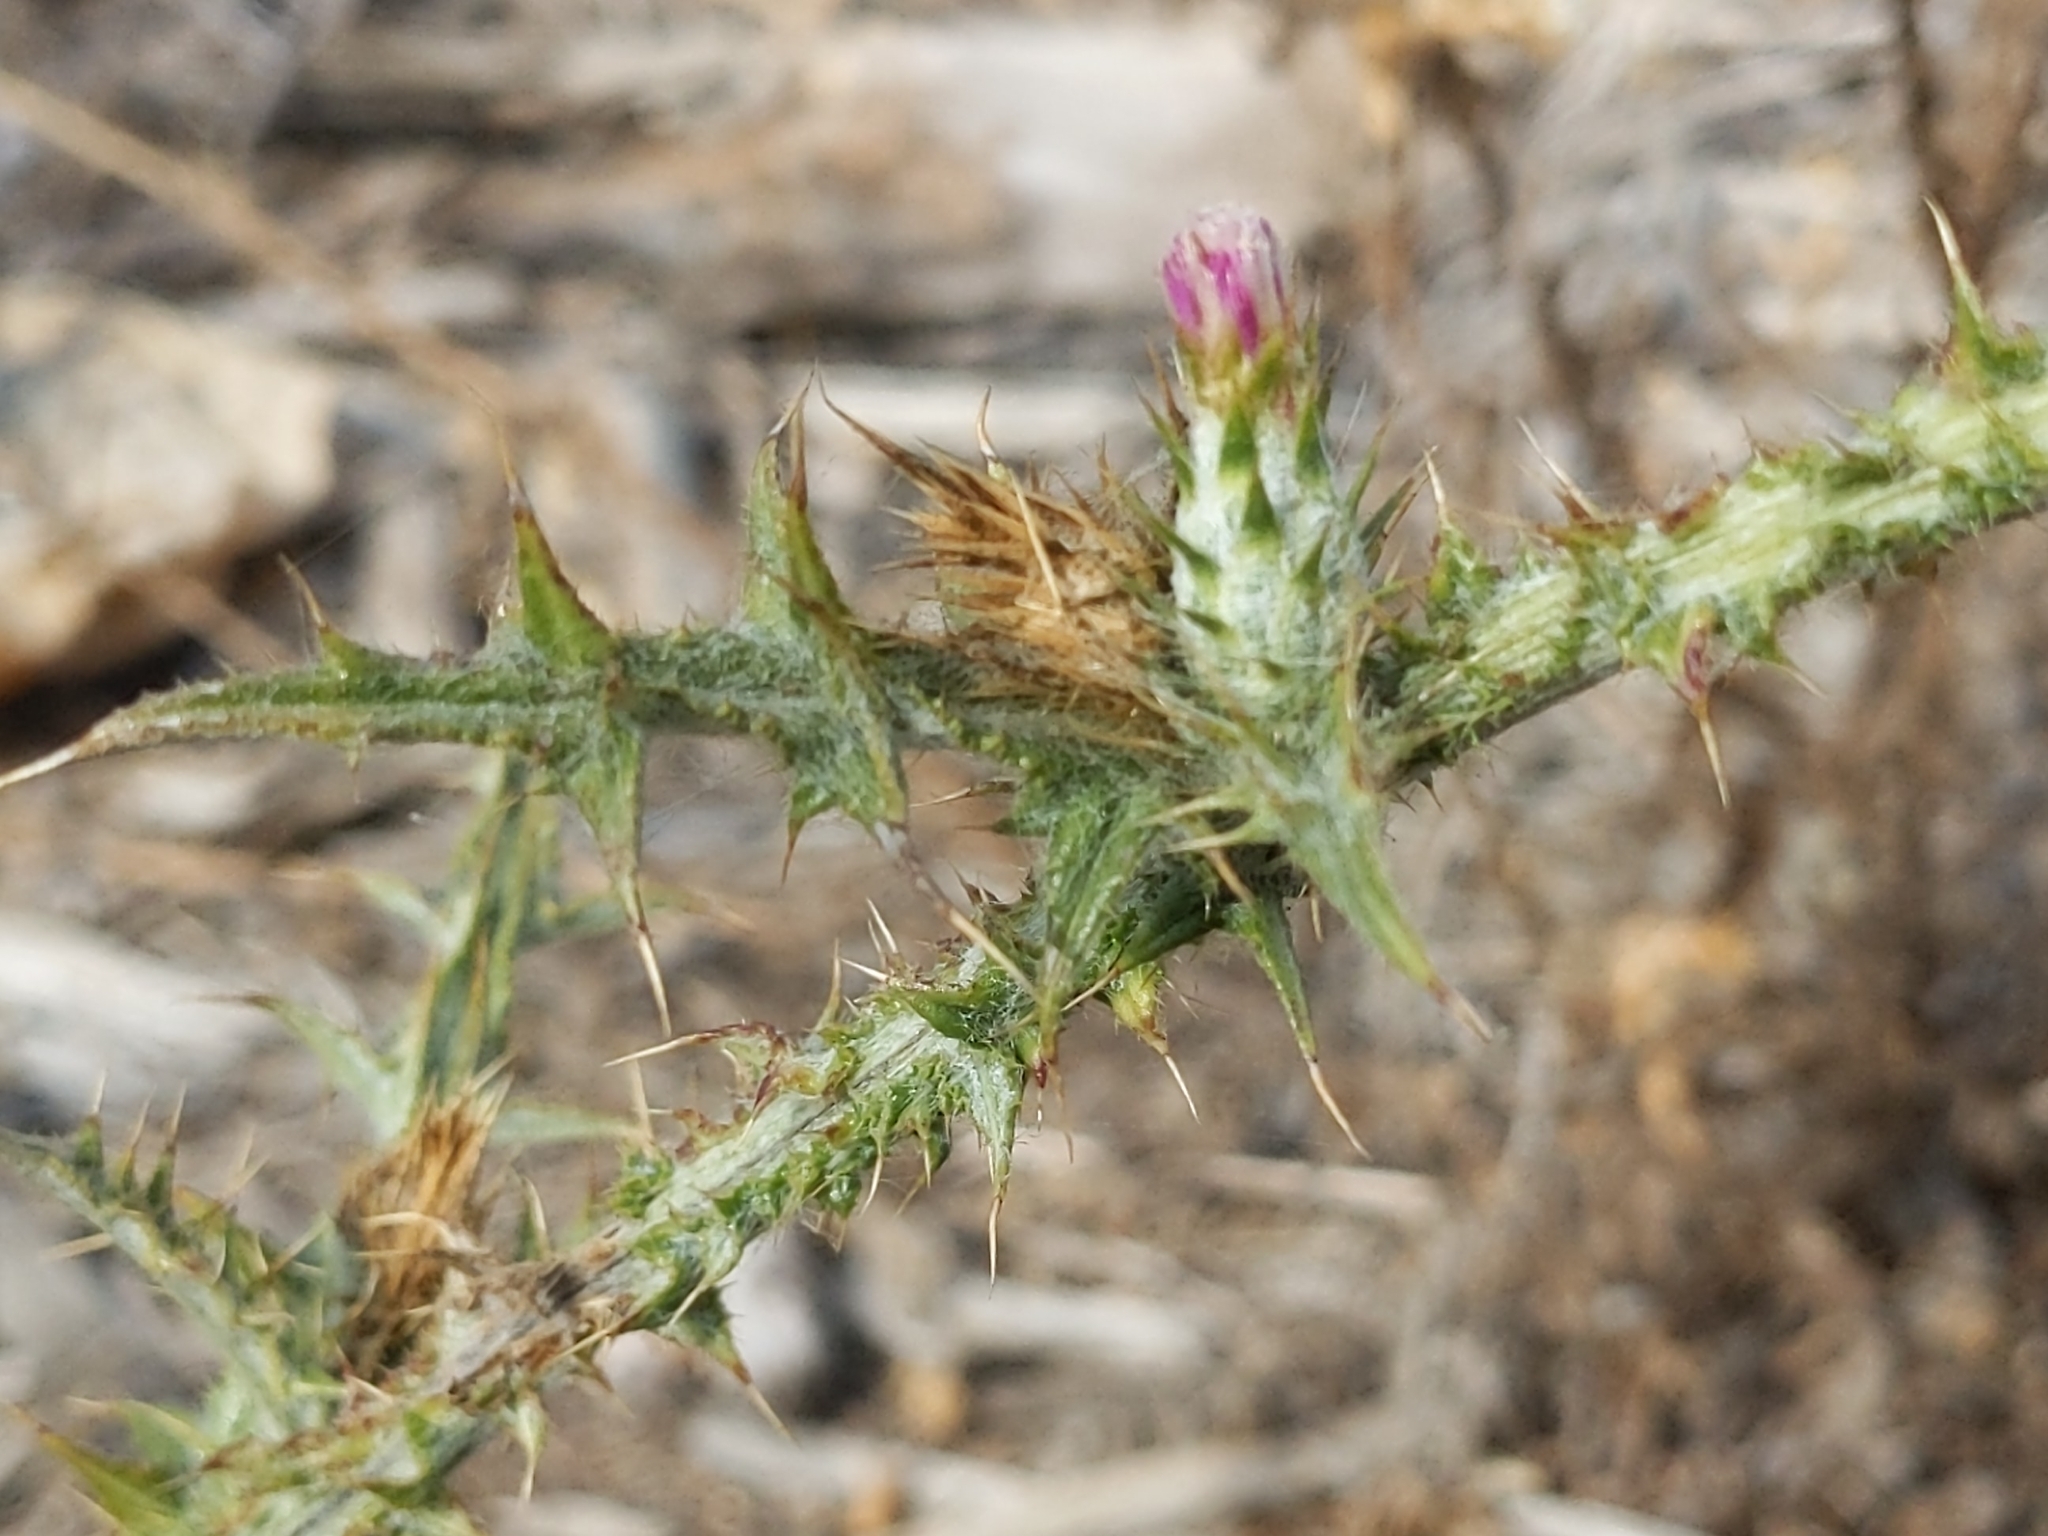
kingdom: Plantae
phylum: Tracheophyta
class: Magnoliopsida
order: Asterales
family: Asteraceae
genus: Carduus
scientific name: Carduus pycnocephalus
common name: Plymouth thistle
